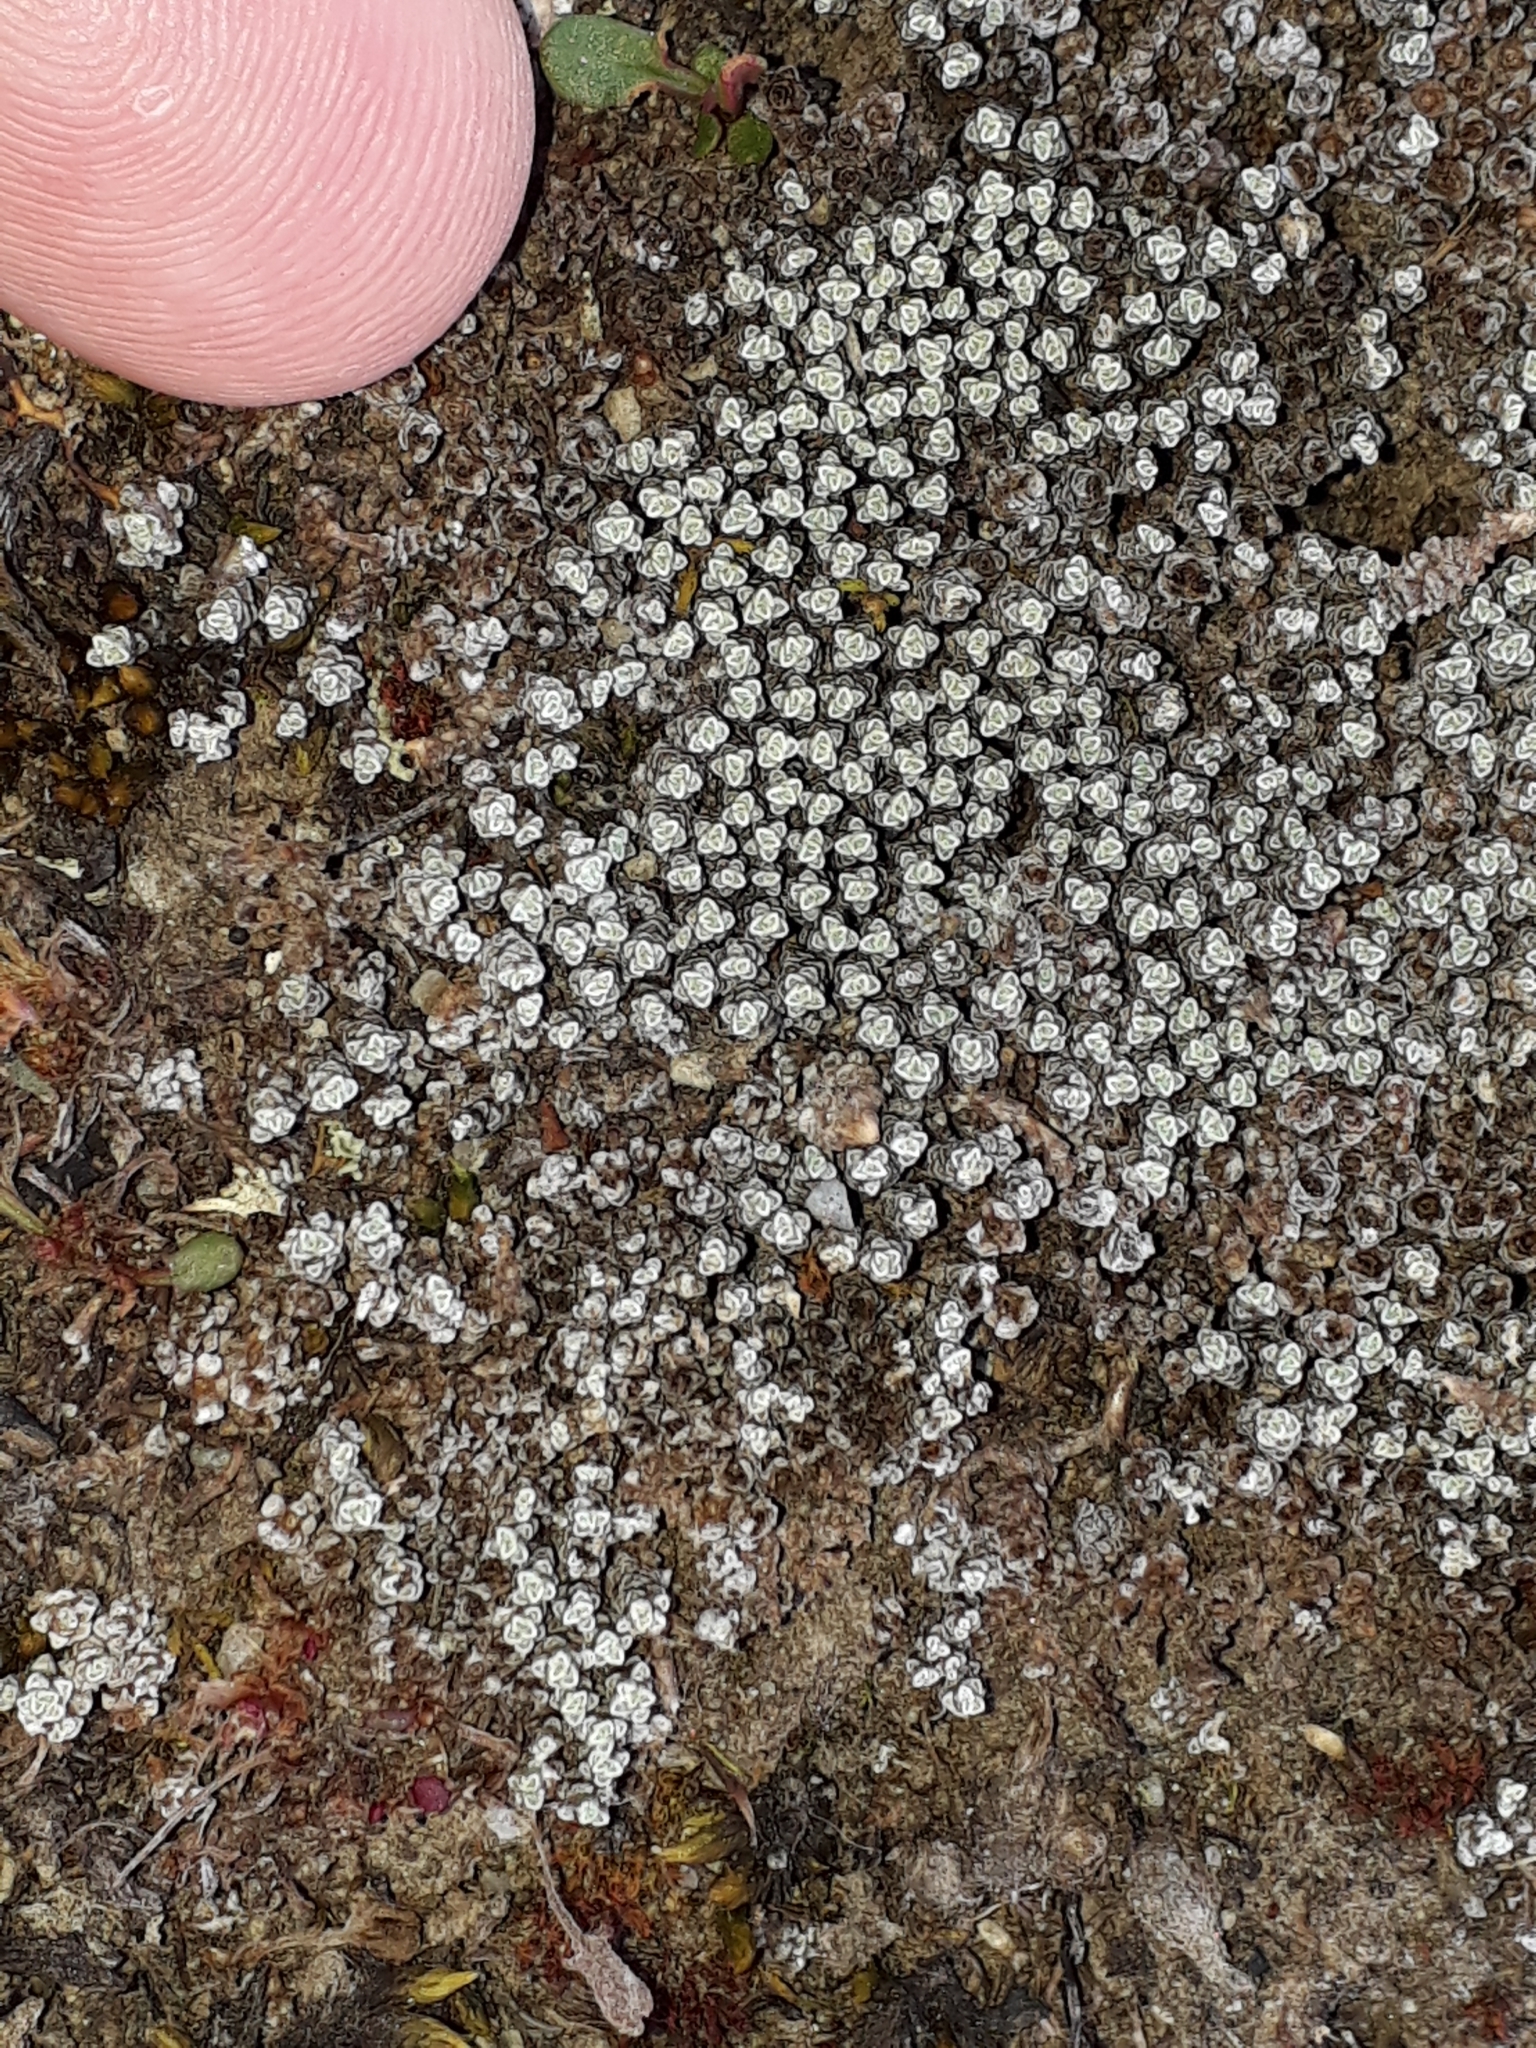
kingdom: Plantae
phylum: Tracheophyta
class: Magnoliopsida
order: Asterales
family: Asteraceae
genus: Raoulia
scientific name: Raoulia australis
